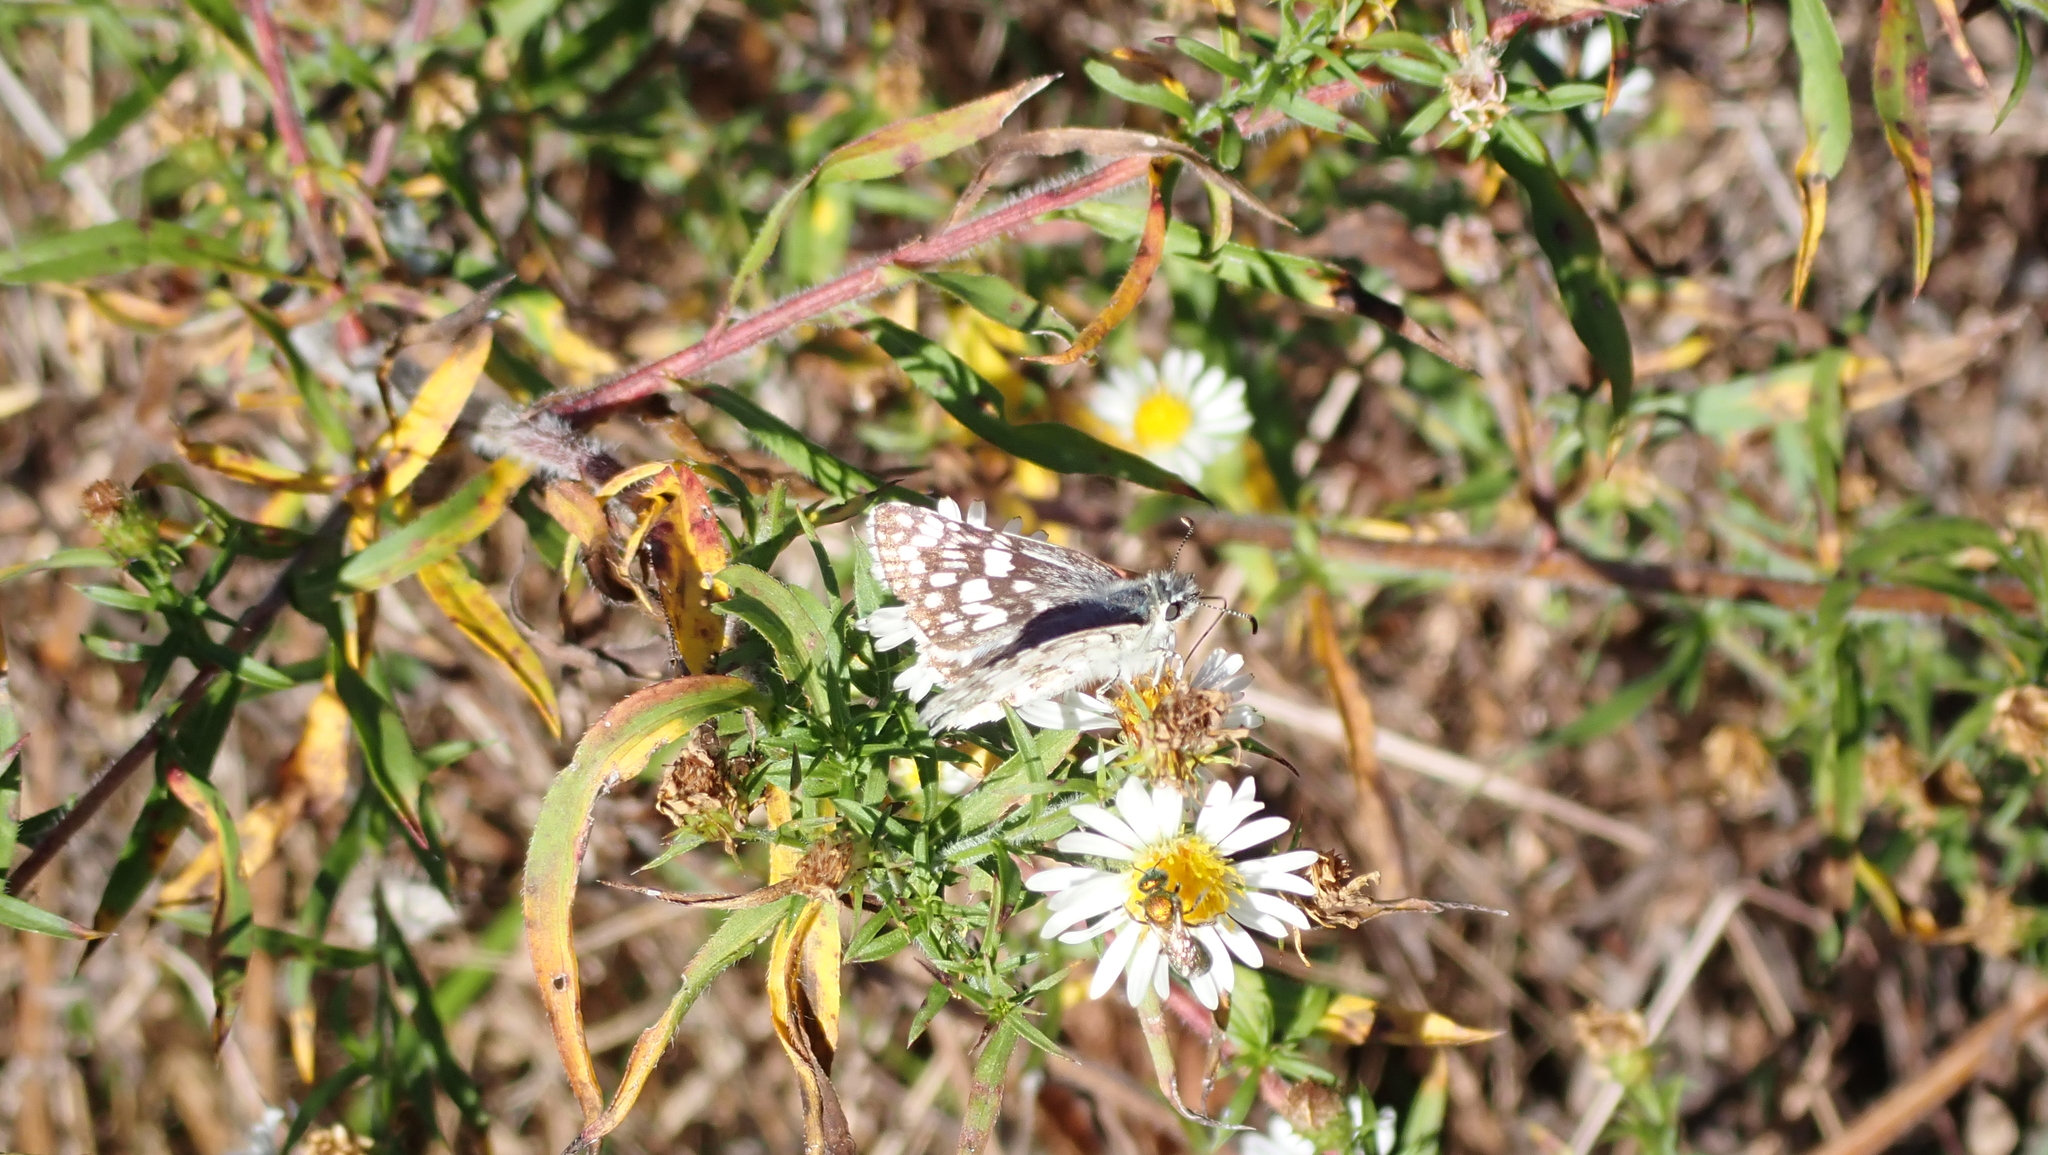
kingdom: Animalia
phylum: Arthropoda
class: Insecta
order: Lepidoptera
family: Hesperiidae
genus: Burnsius
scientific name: Burnsius communis
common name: Common checkered-skipper
